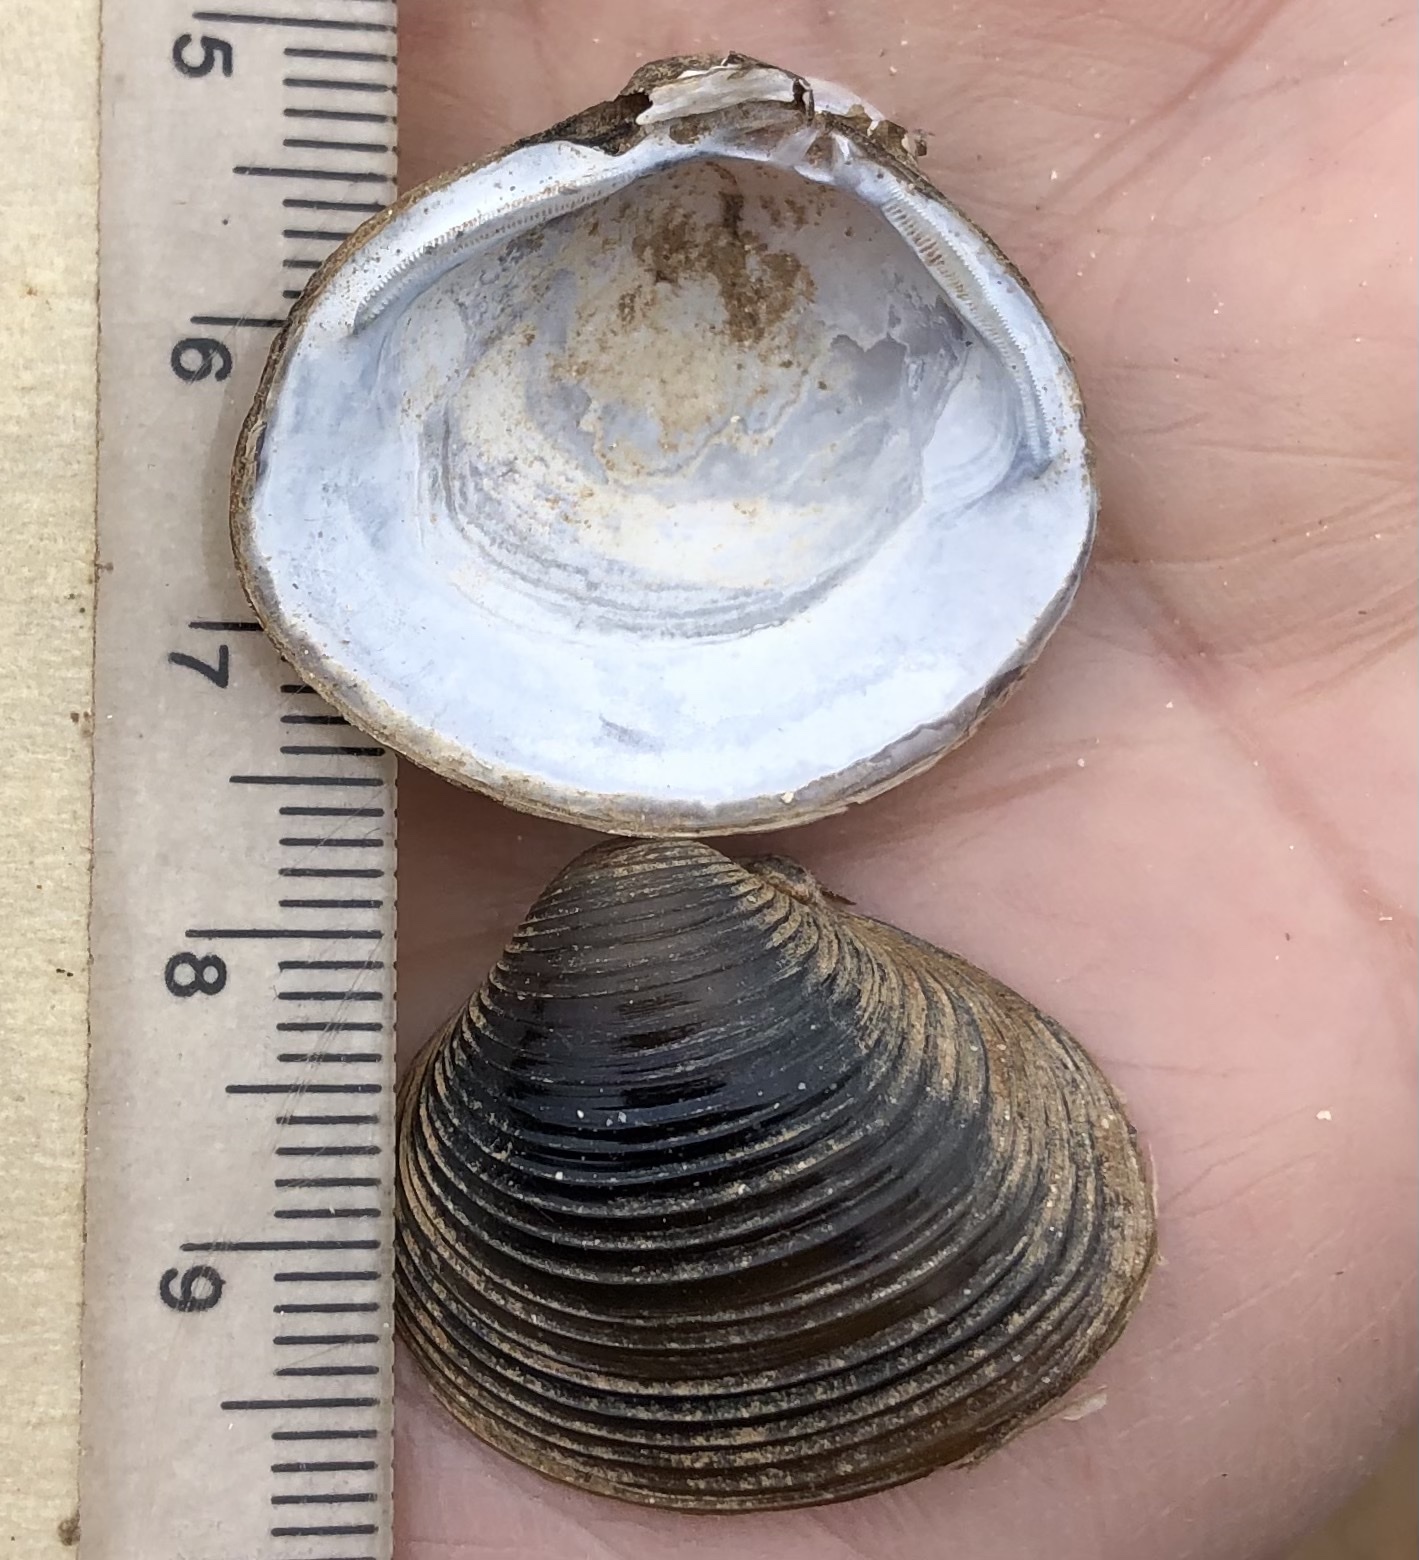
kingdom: Animalia
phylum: Mollusca
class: Bivalvia
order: Venerida
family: Cyrenidae
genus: Corbicula
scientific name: Corbicula fluminea
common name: Asian clam
